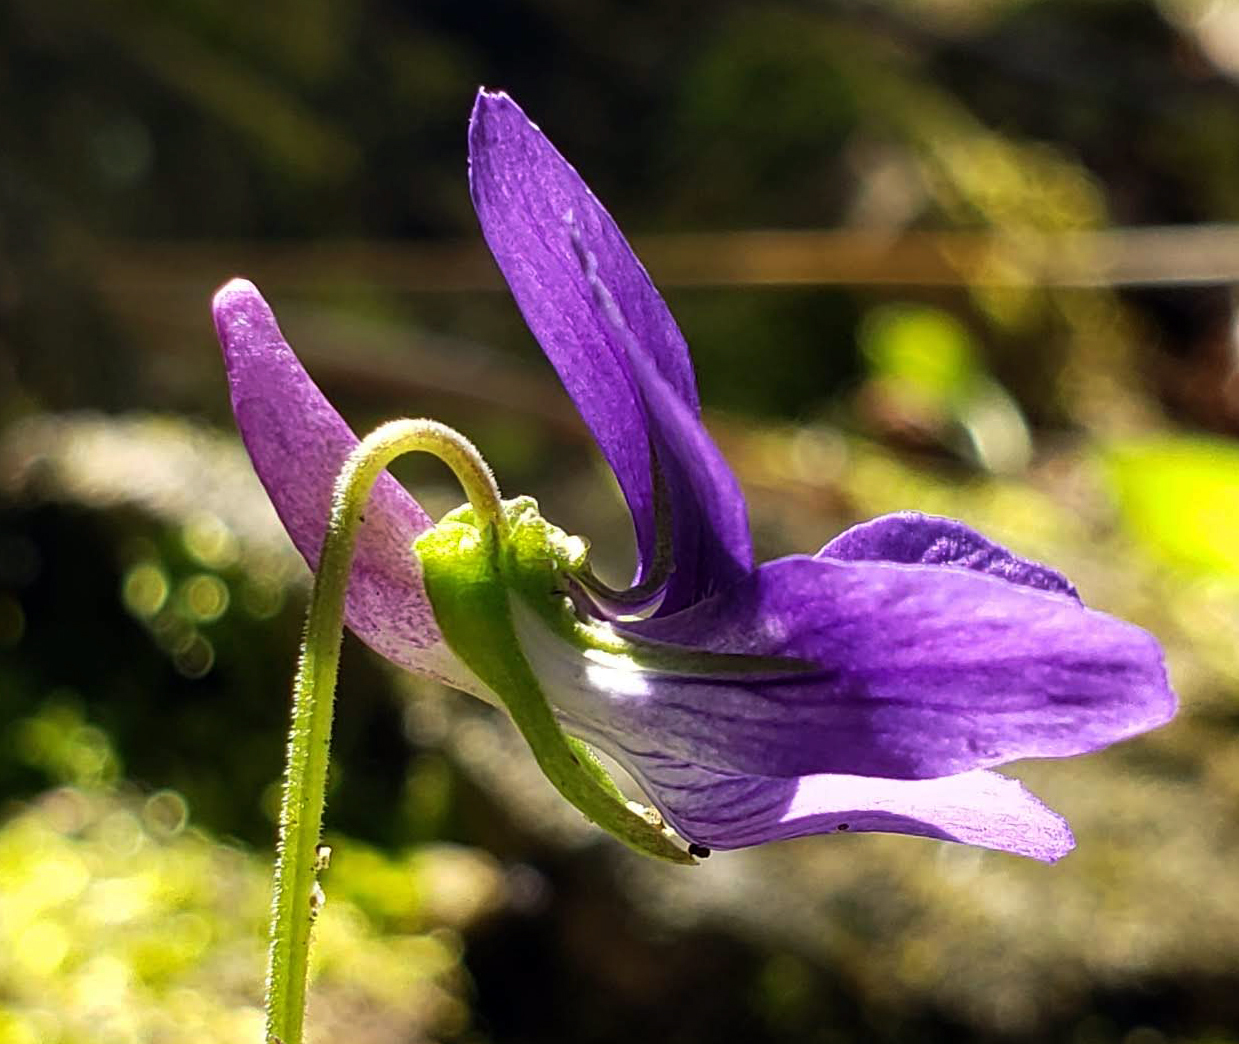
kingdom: Plantae
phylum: Tracheophyta
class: Magnoliopsida
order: Malpighiales
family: Violaceae
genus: Viola
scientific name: Viola adunca
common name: Sand violet
